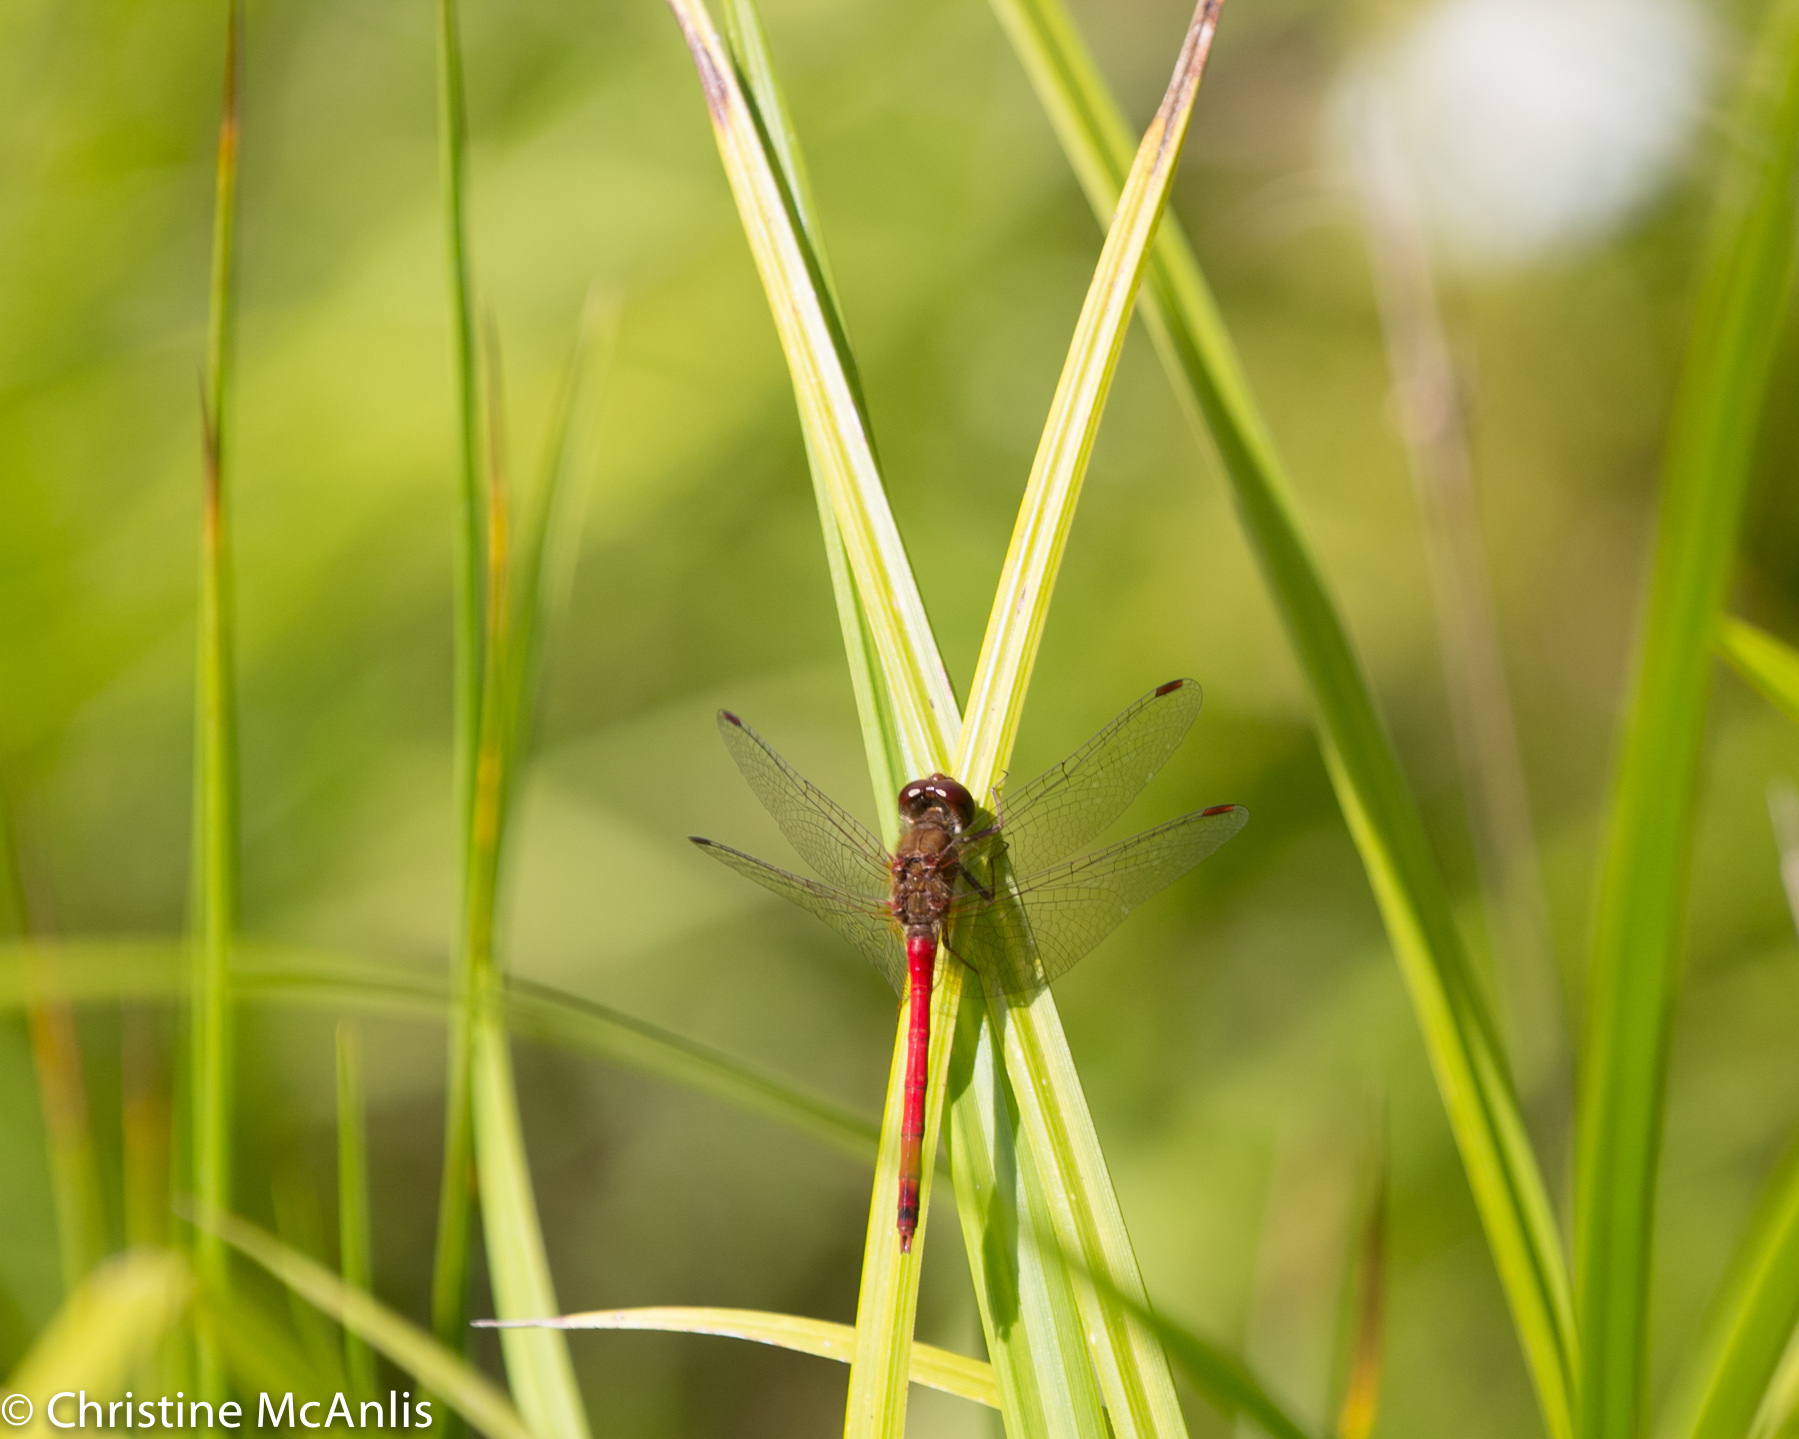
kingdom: Animalia
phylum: Arthropoda
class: Insecta
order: Odonata
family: Libellulidae
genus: Sympetrum
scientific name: Sympetrum vicinum
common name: Autumn meadowhawk
